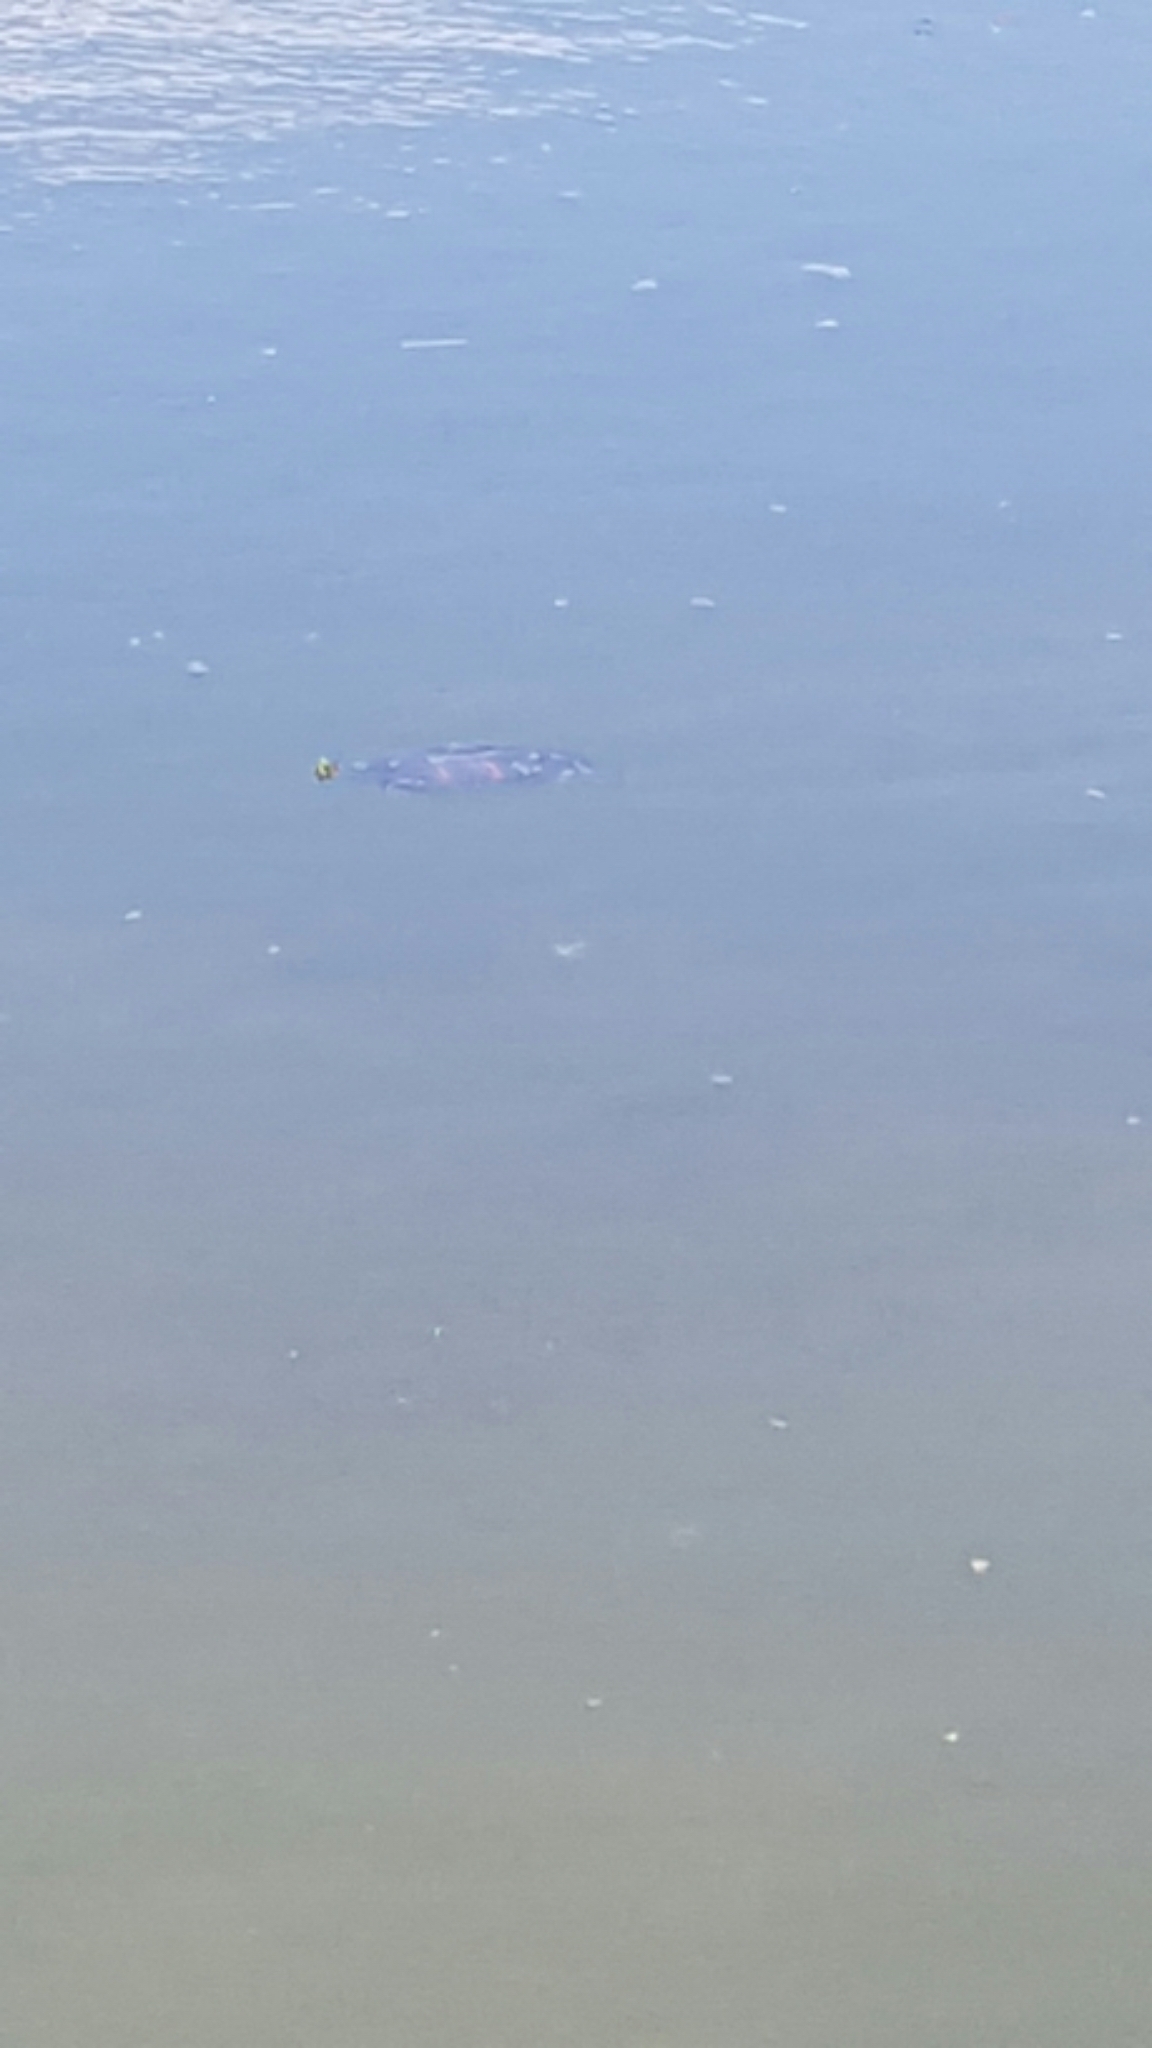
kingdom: Animalia
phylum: Chordata
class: Testudines
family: Emydidae
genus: Pseudemys
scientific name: Pseudemys nelsoni
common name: Florida red-bellied turtle
